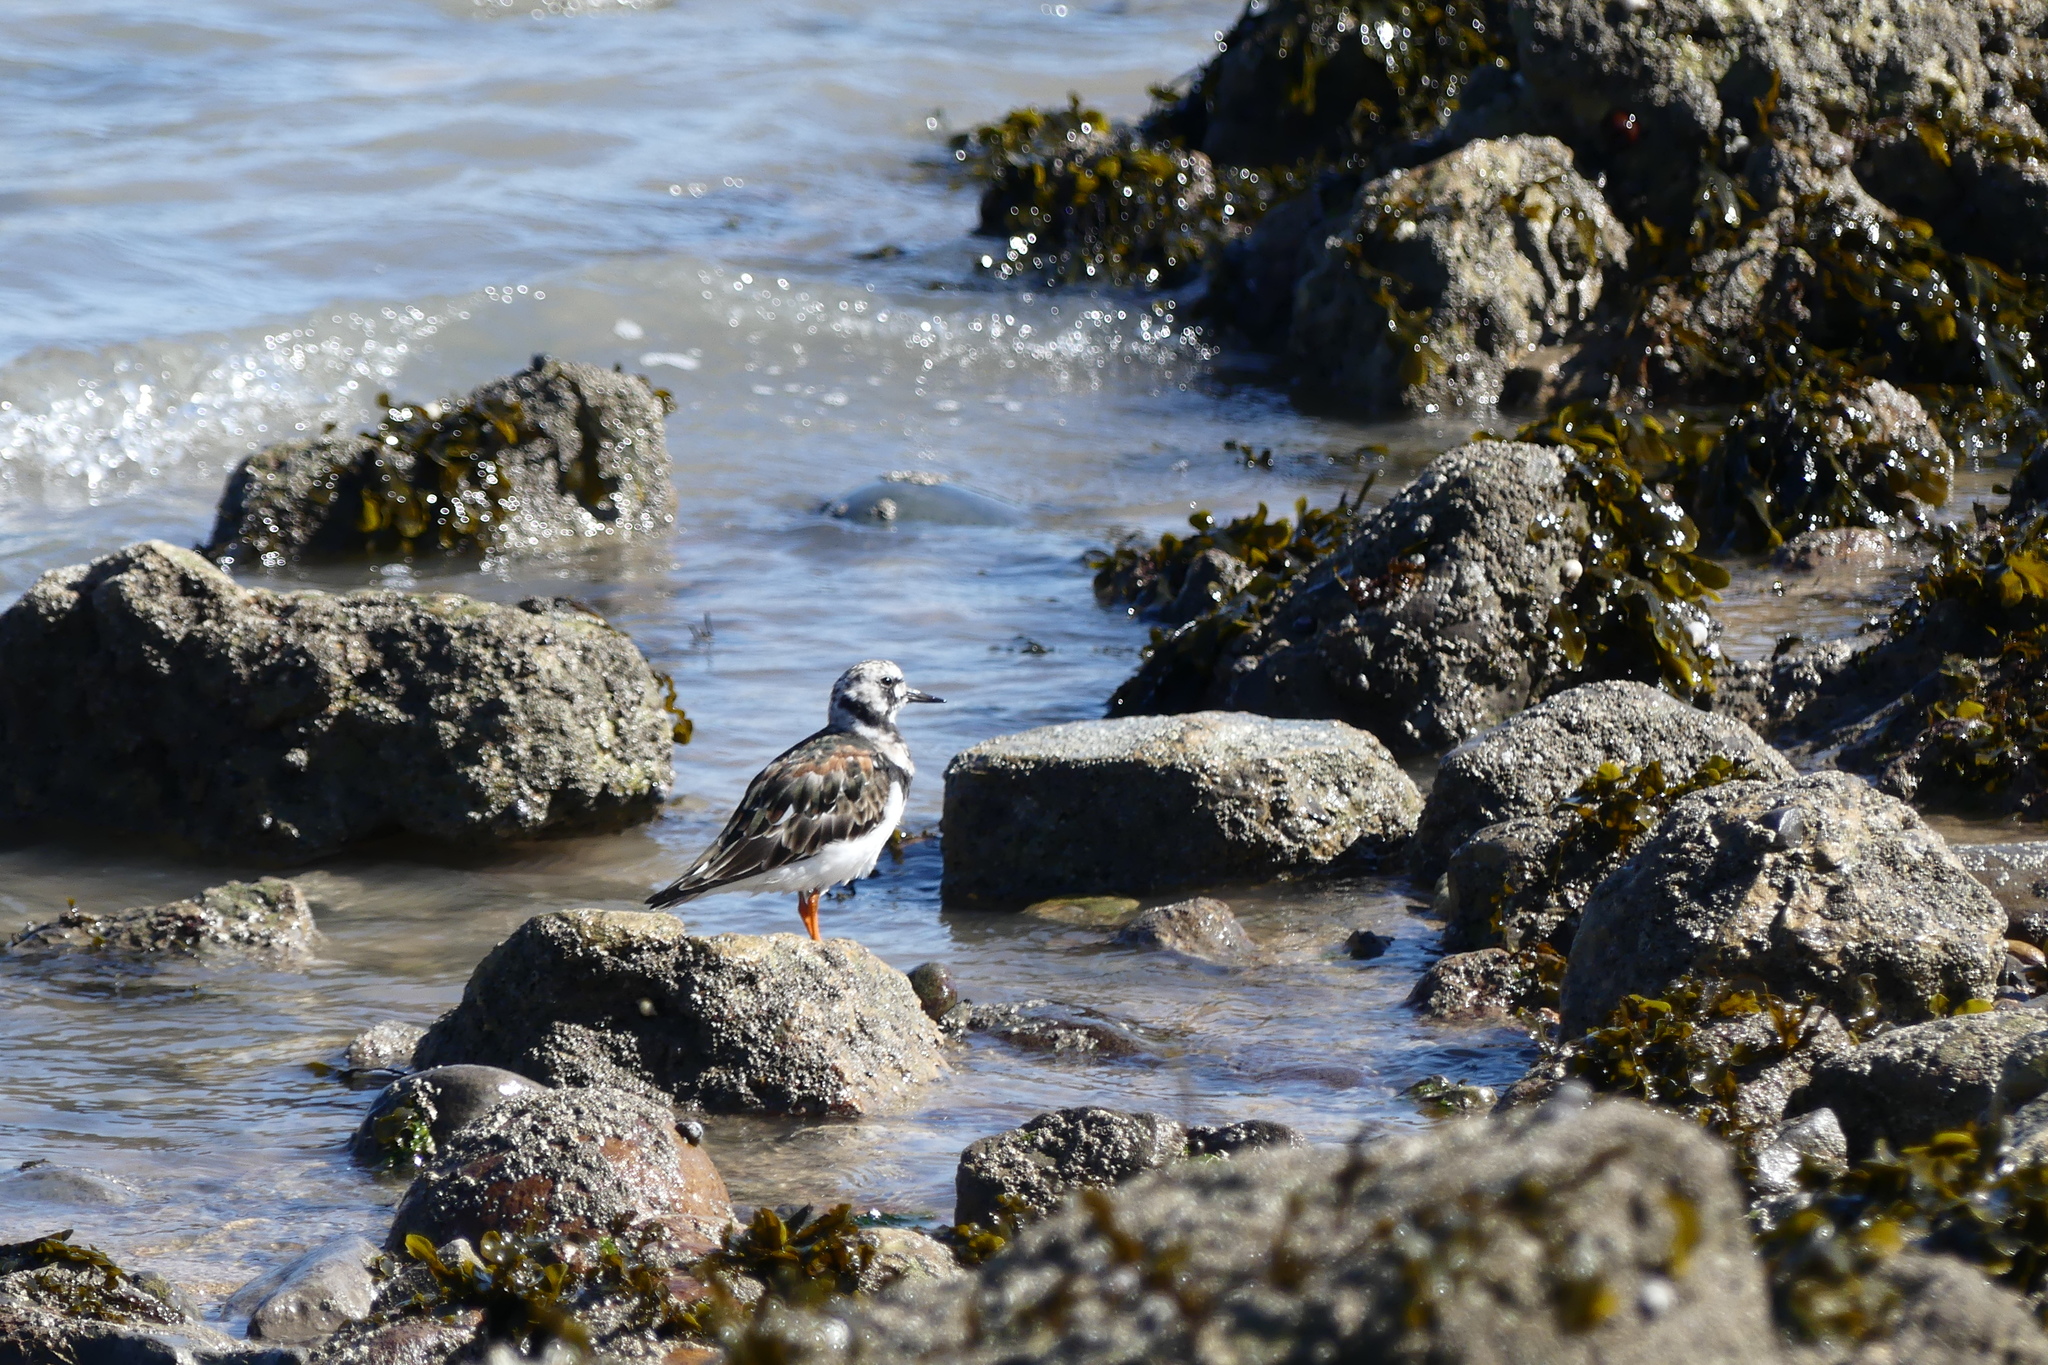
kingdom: Animalia
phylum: Chordata
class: Aves
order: Charadriiformes
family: Scolopacidae
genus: Arenaria
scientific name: Arenaria interpres
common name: Ruddy turnstone
